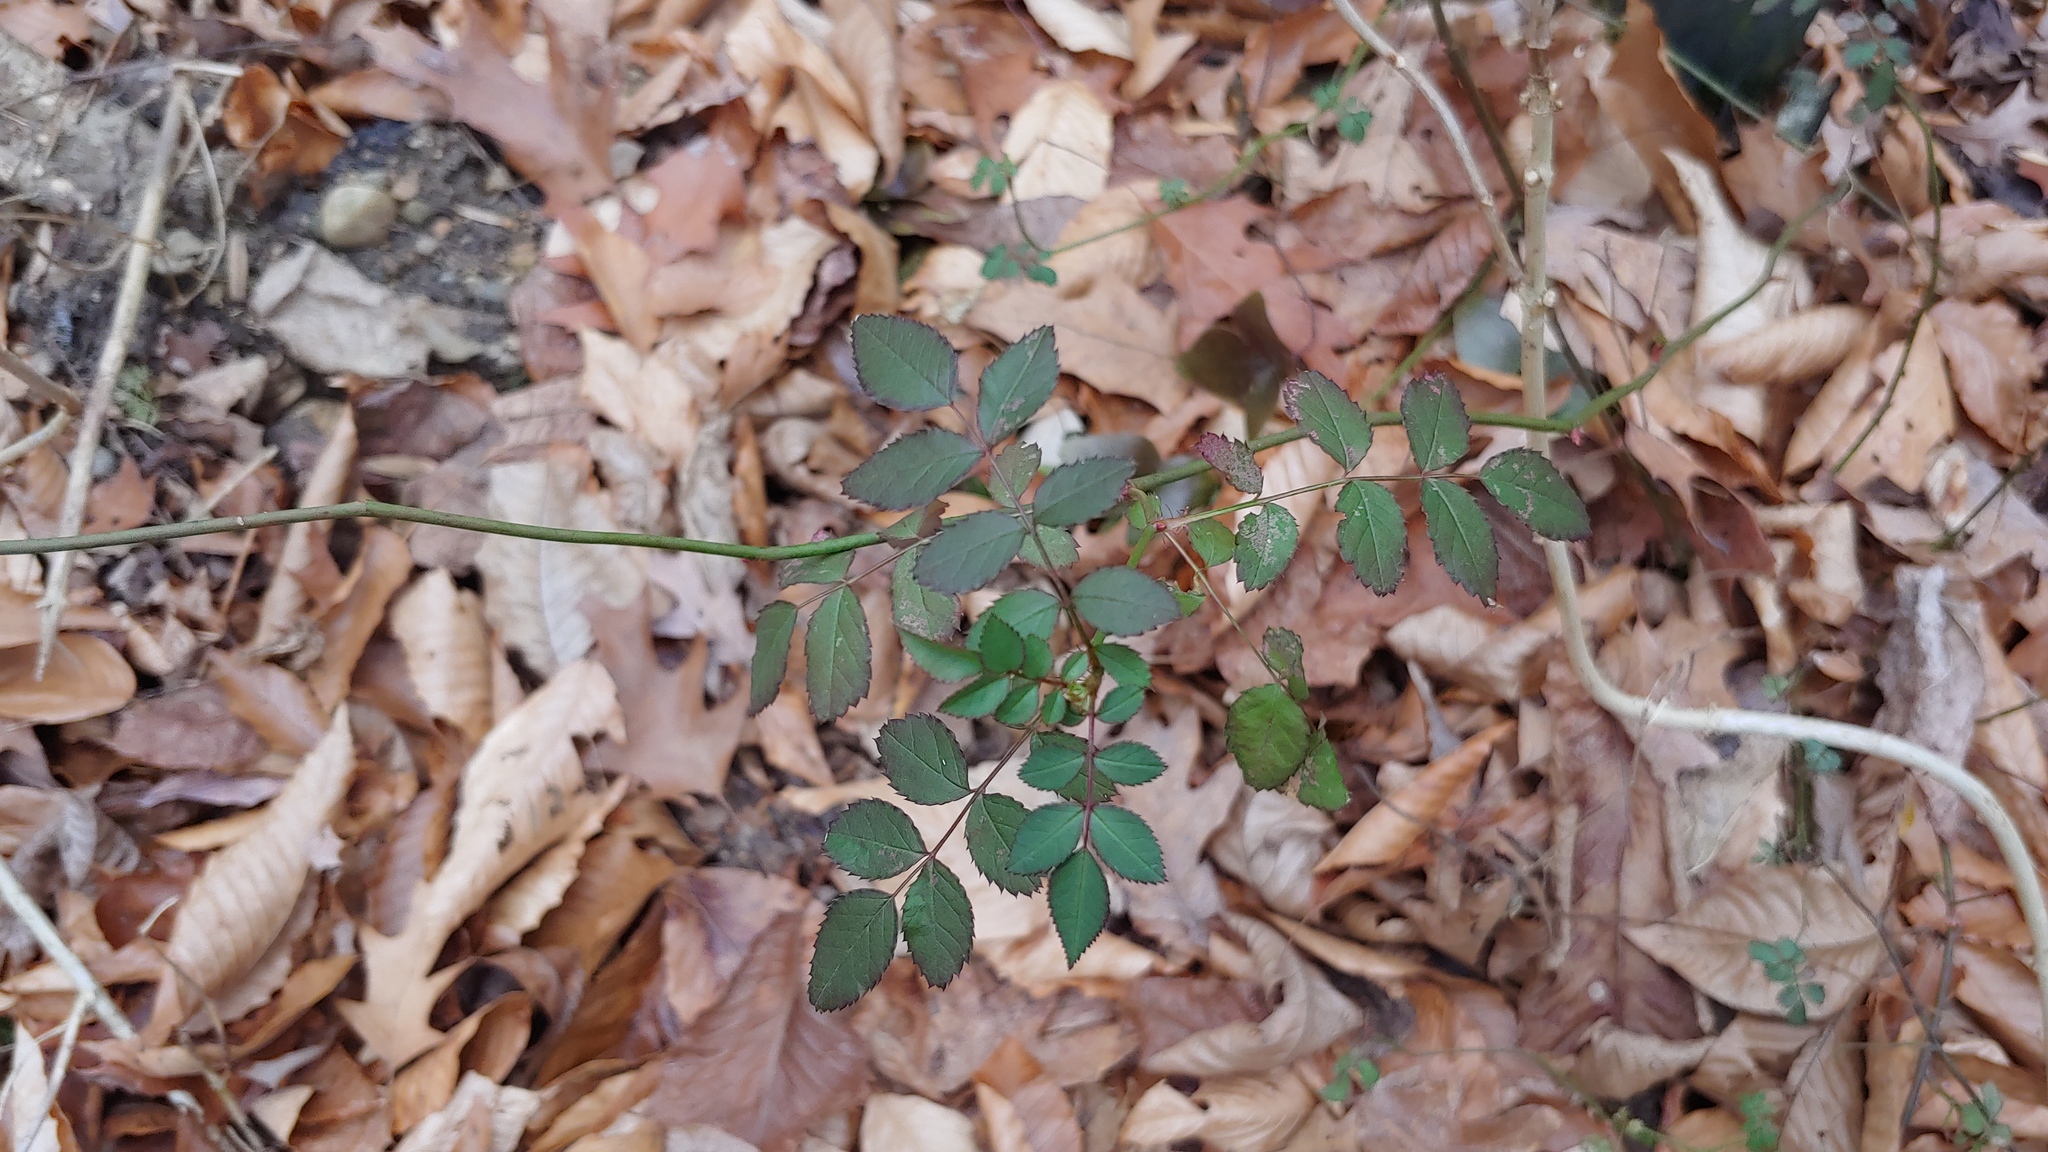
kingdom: Plantae
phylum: Tracheophyta
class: Magnoliopsida
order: Rosales
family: Rosaceae
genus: Rosa
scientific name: Rosa multiflora
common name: Multiflora rose
